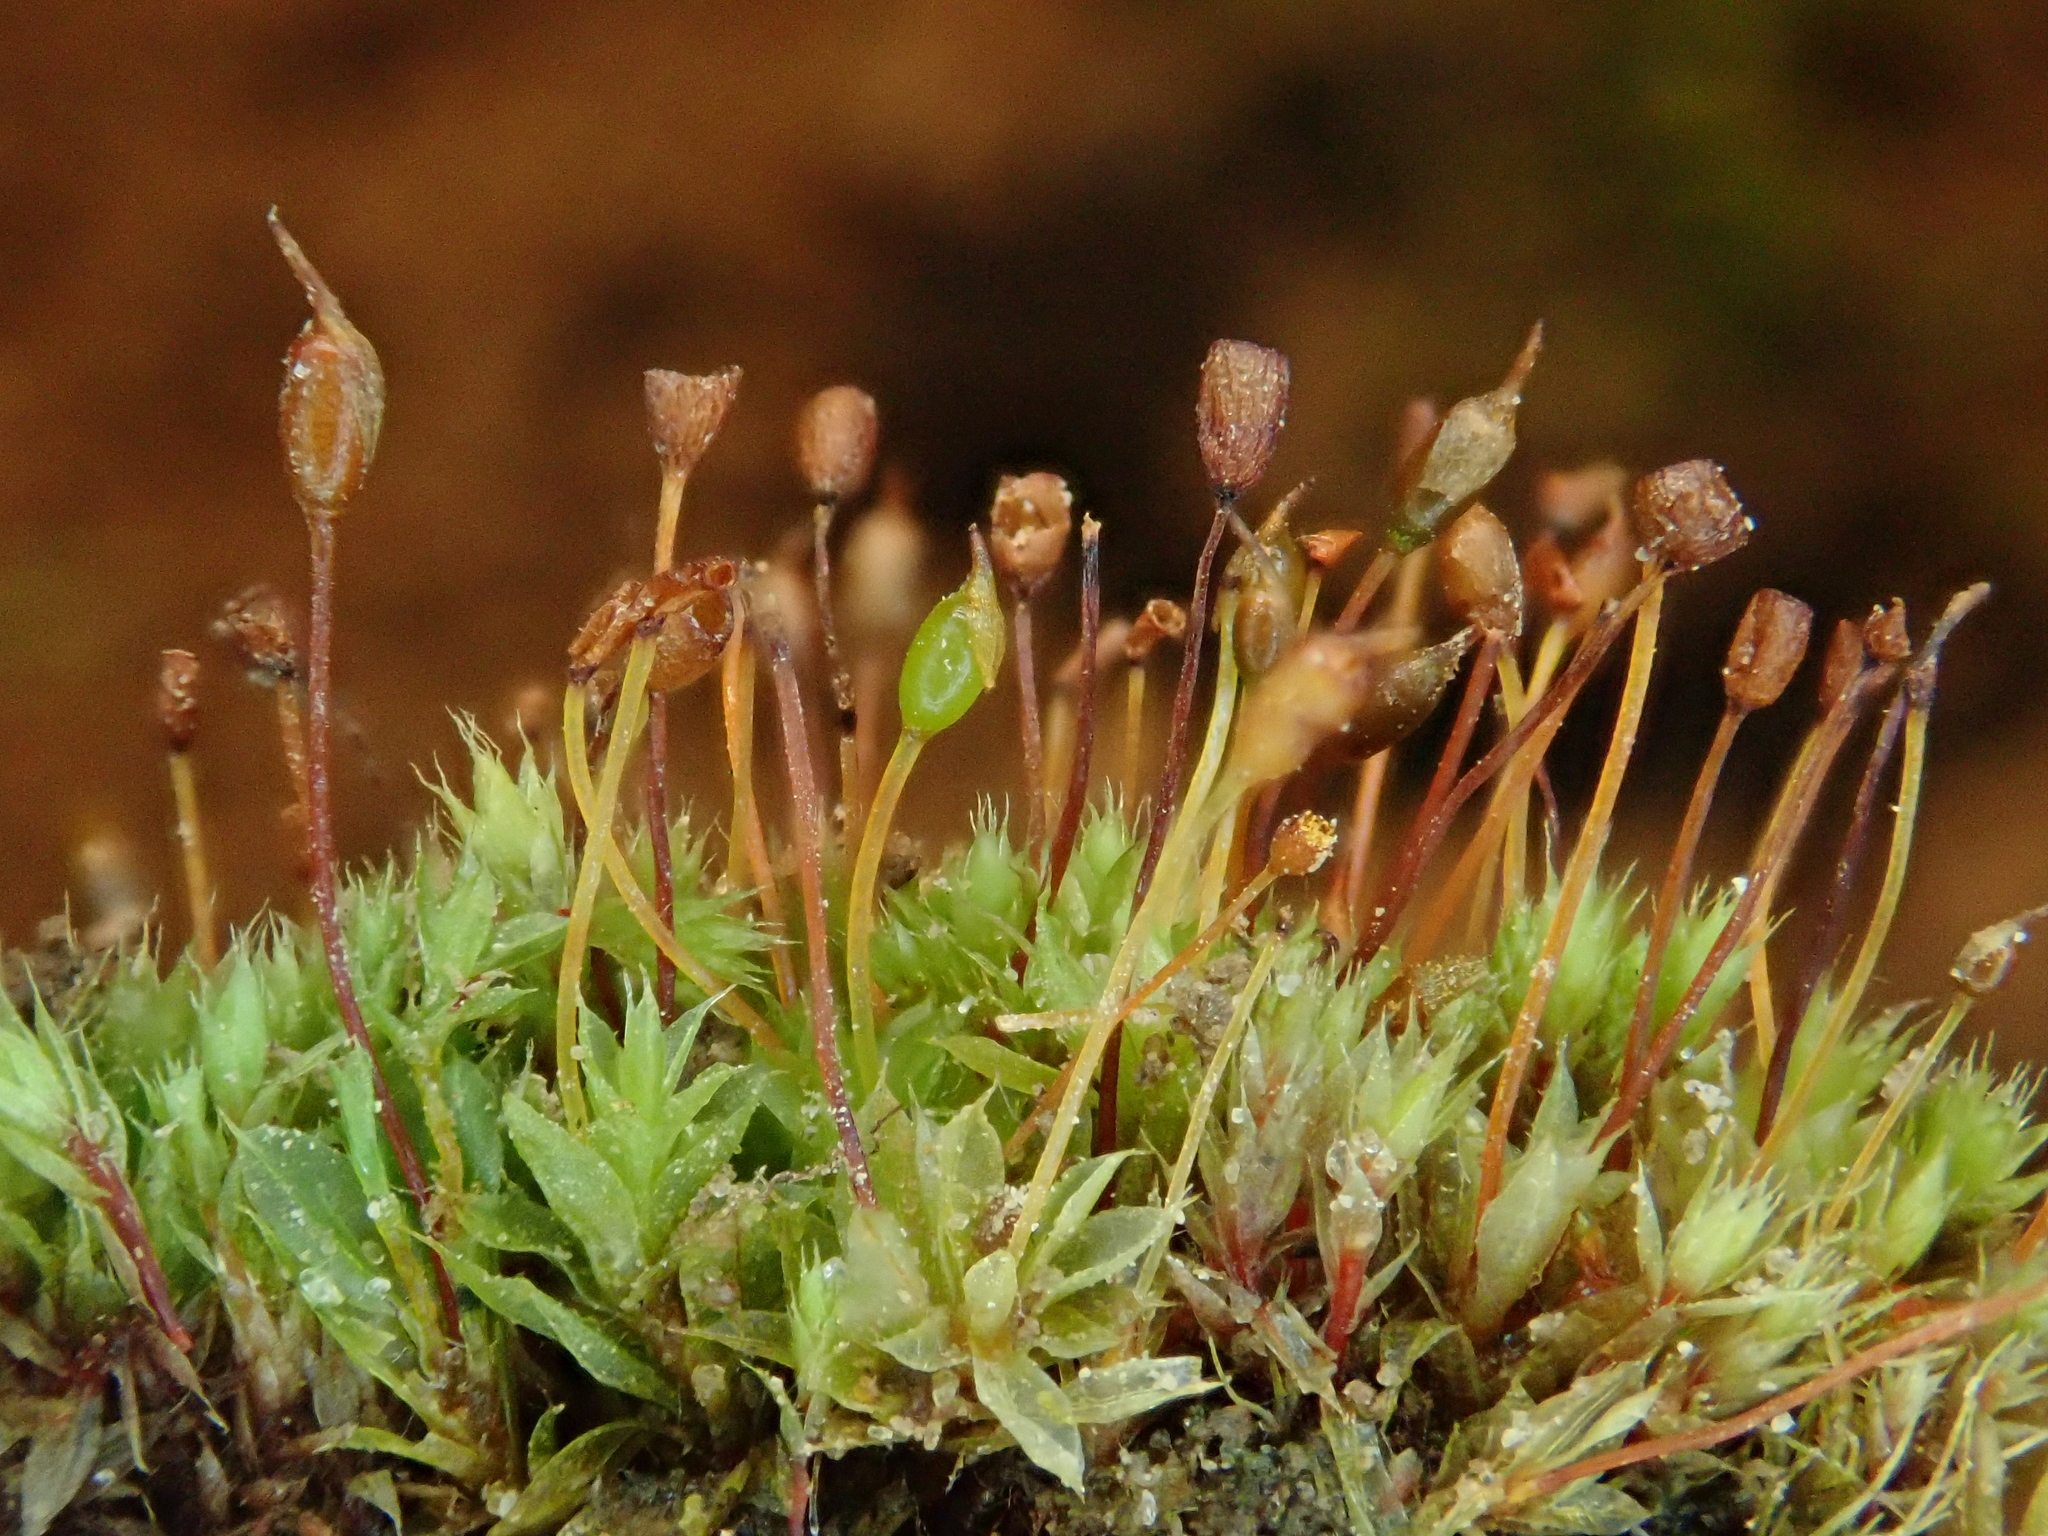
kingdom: Plantae
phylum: Bryophyta
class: Bryopsida
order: Pottiales
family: Pottiaceae
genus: Tortula
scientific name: Tortula caucasica
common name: Blunt-fruited pottia
